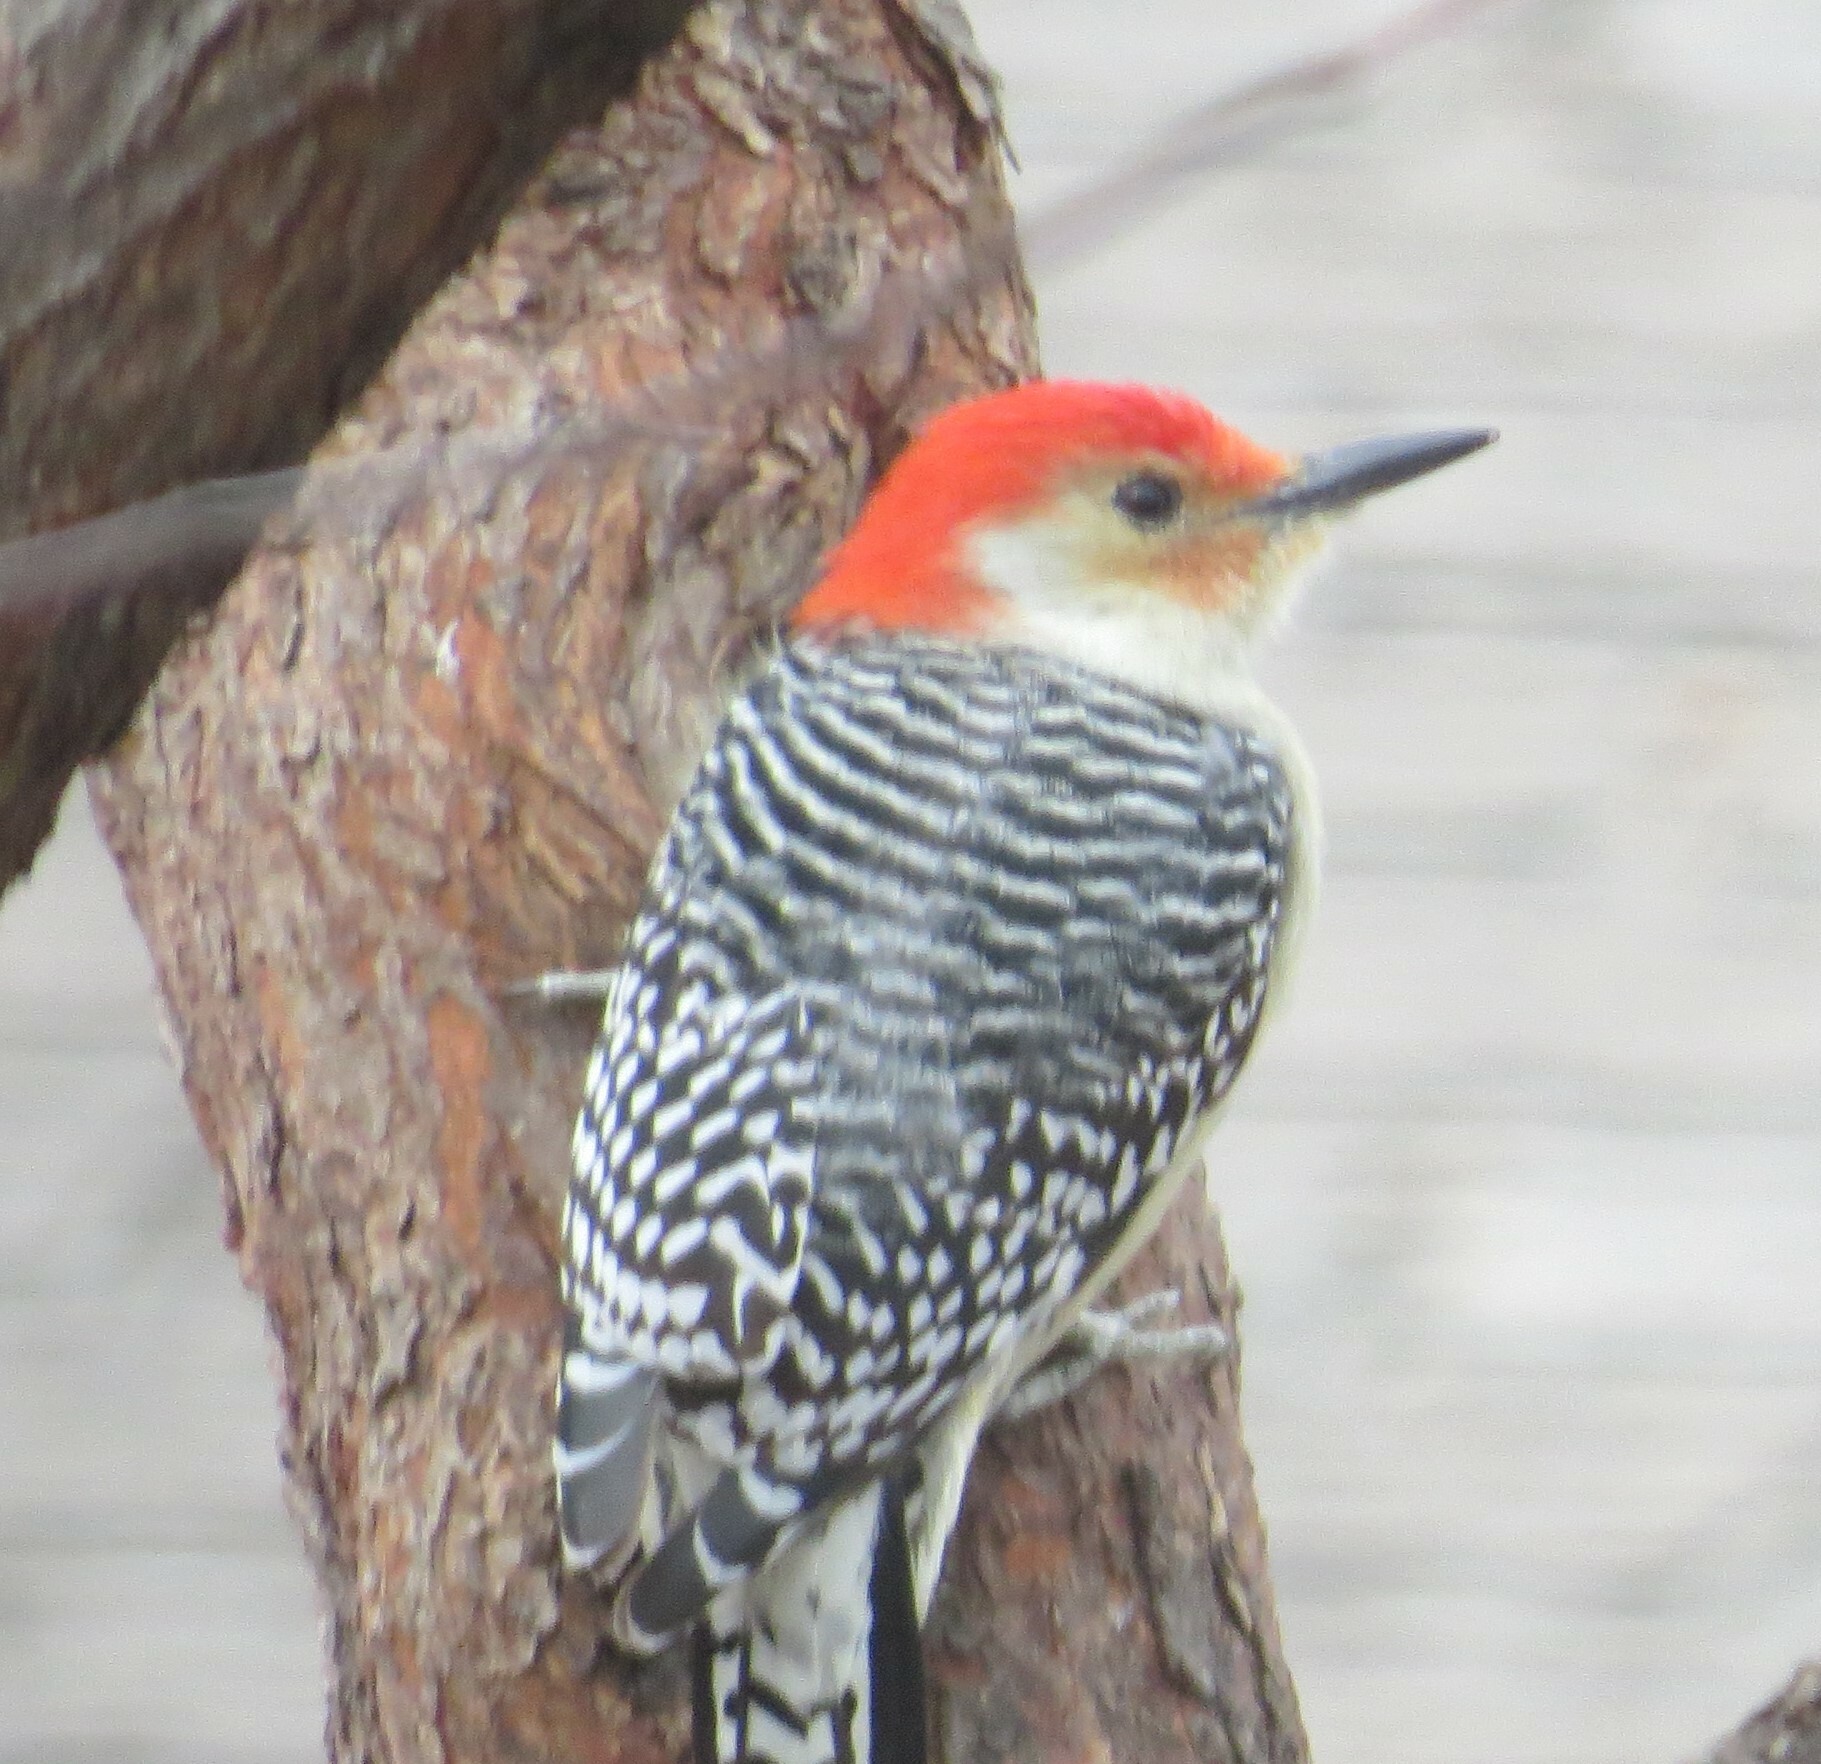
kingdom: Animalia
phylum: Chordata
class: Aves
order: Piciformes
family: Picidae
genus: Melanerpes
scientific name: Melanerpes carolinus
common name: Red-bellied woodpecker
